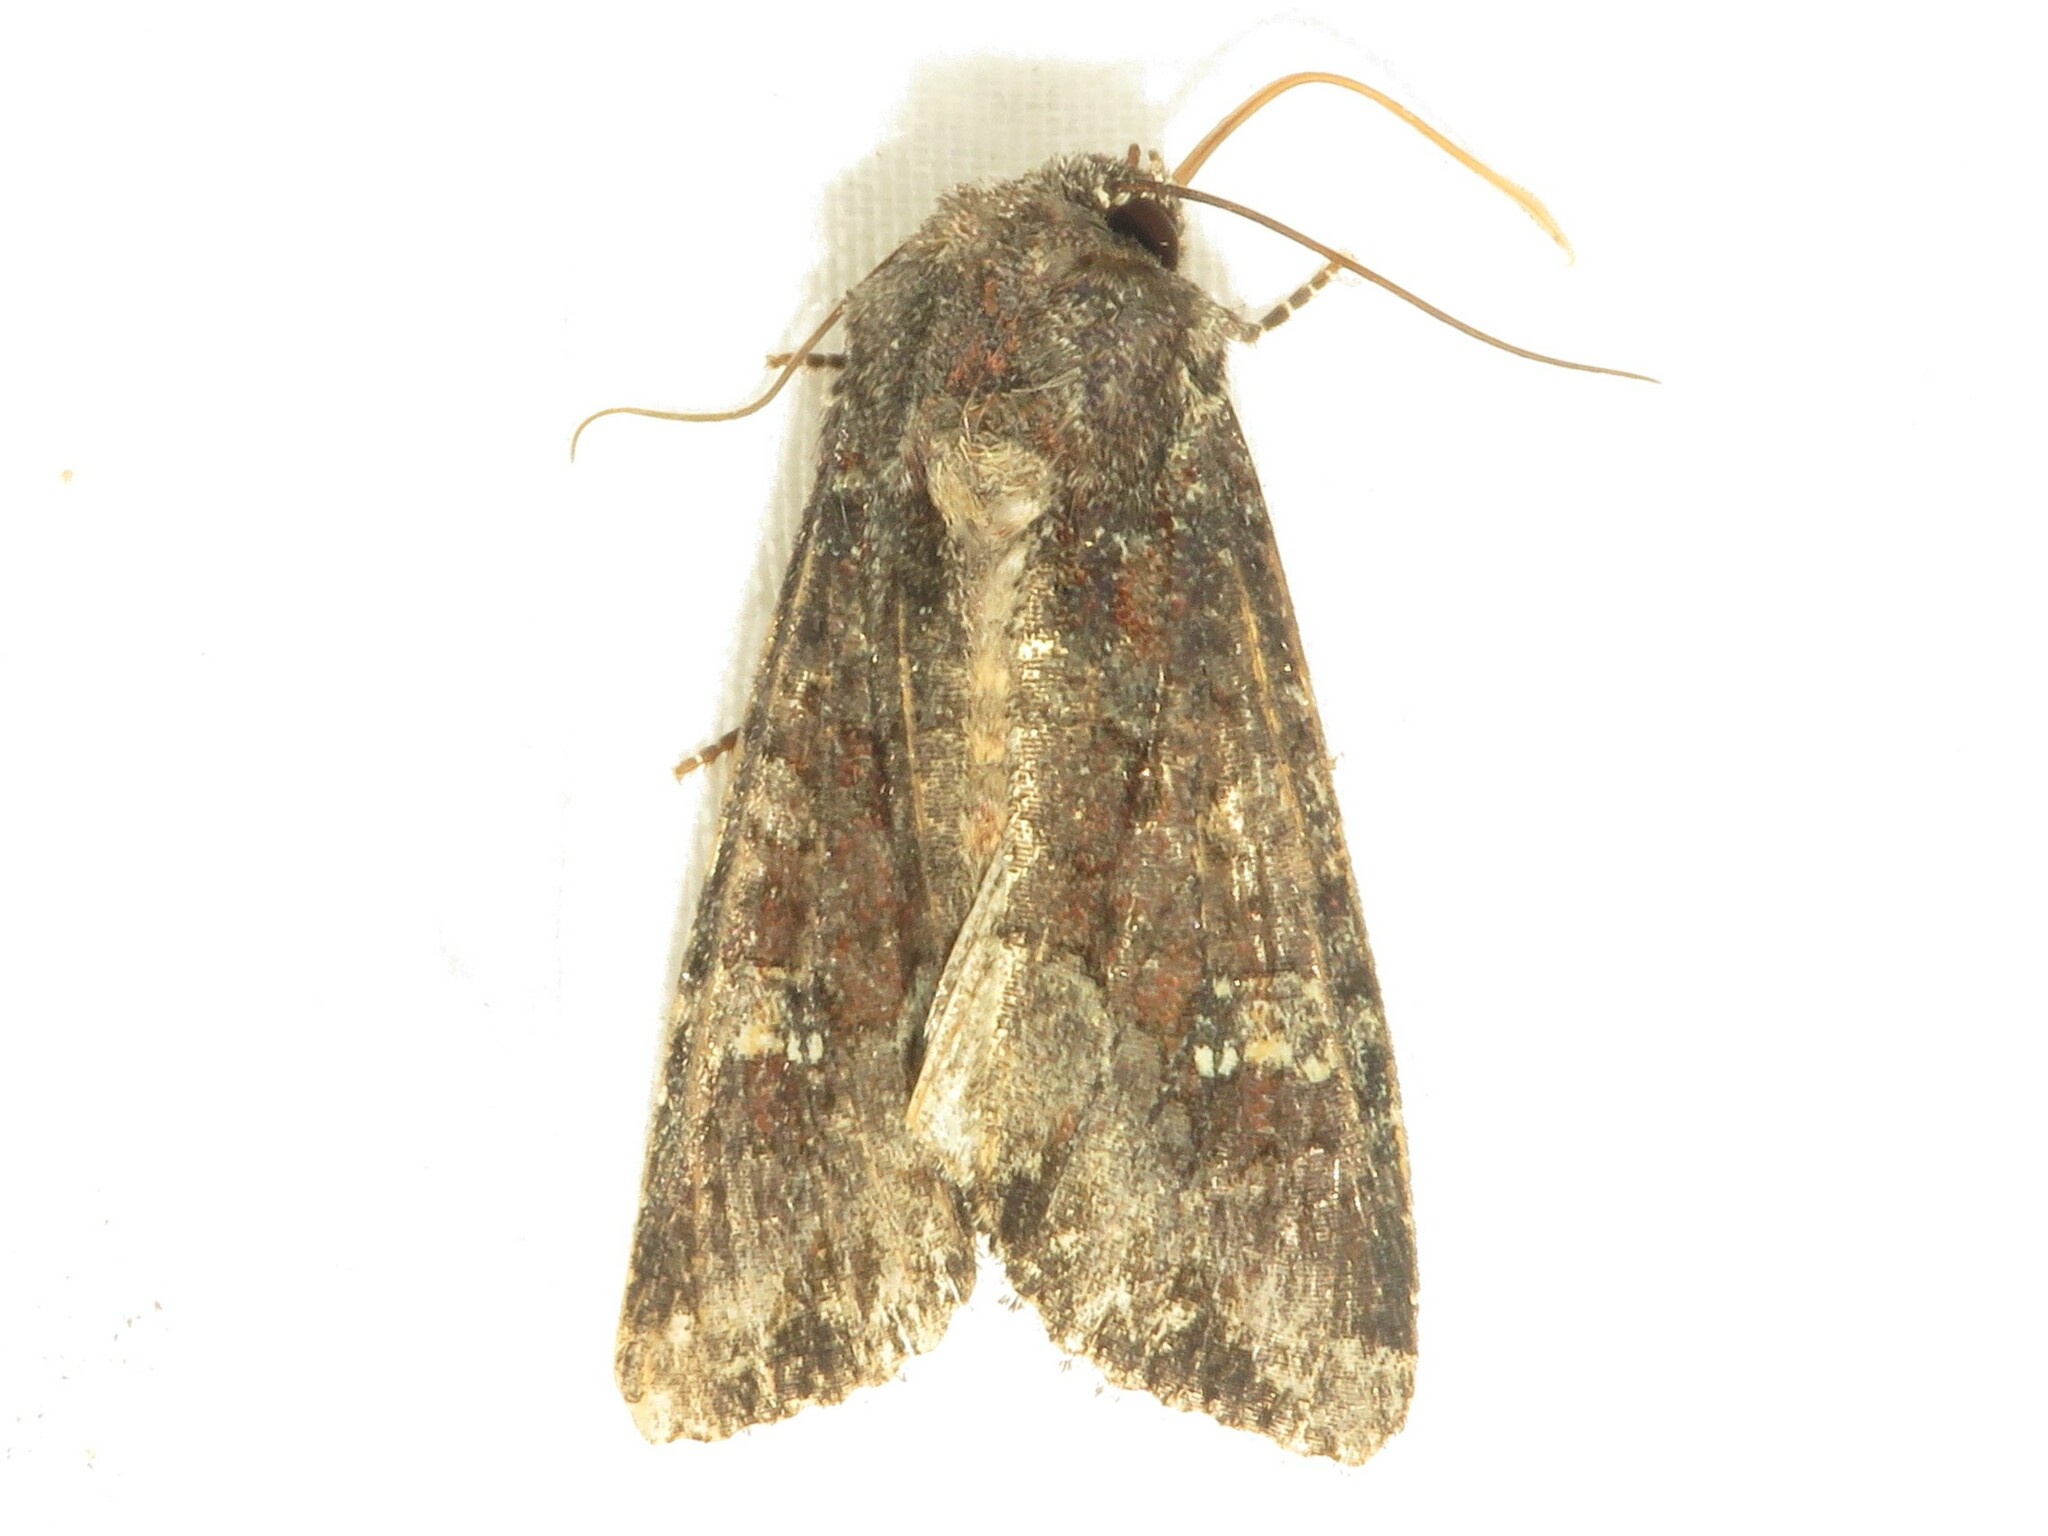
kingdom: Animalia
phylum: Arthropoda
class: Insecta
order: Lepidoptera
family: Noctuidae
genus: Apamea
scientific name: Apamea amputatrix
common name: Yellow-headed cutworm moth
